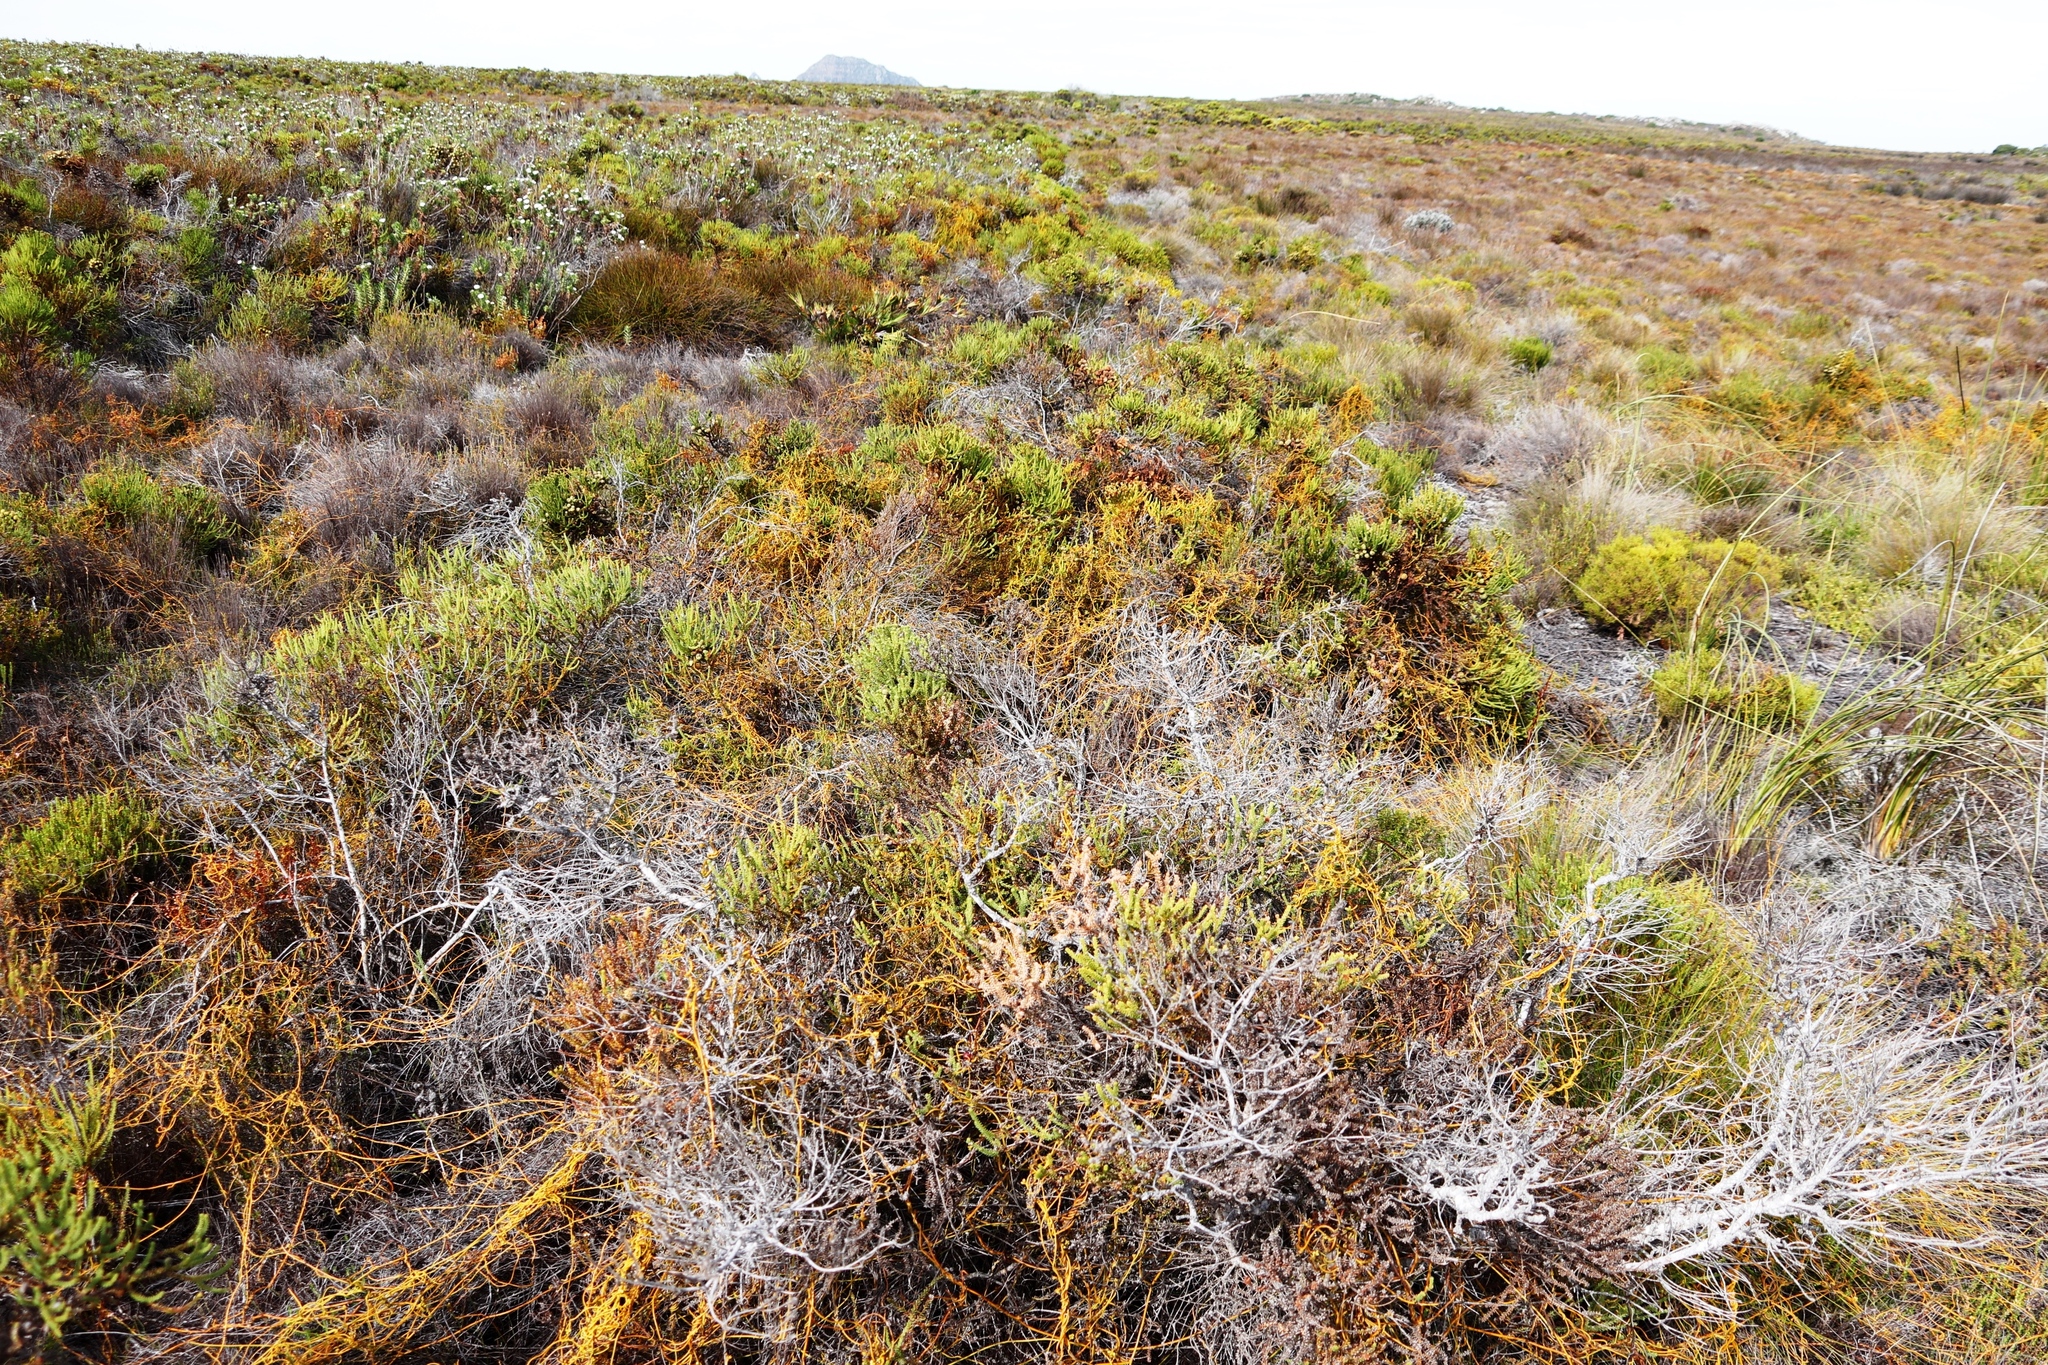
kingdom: Plantae
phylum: Tracheophyta
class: Magnoliopsida
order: Laurales
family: Lauraceae
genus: Cassytha
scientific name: Cassytha ciliolata
